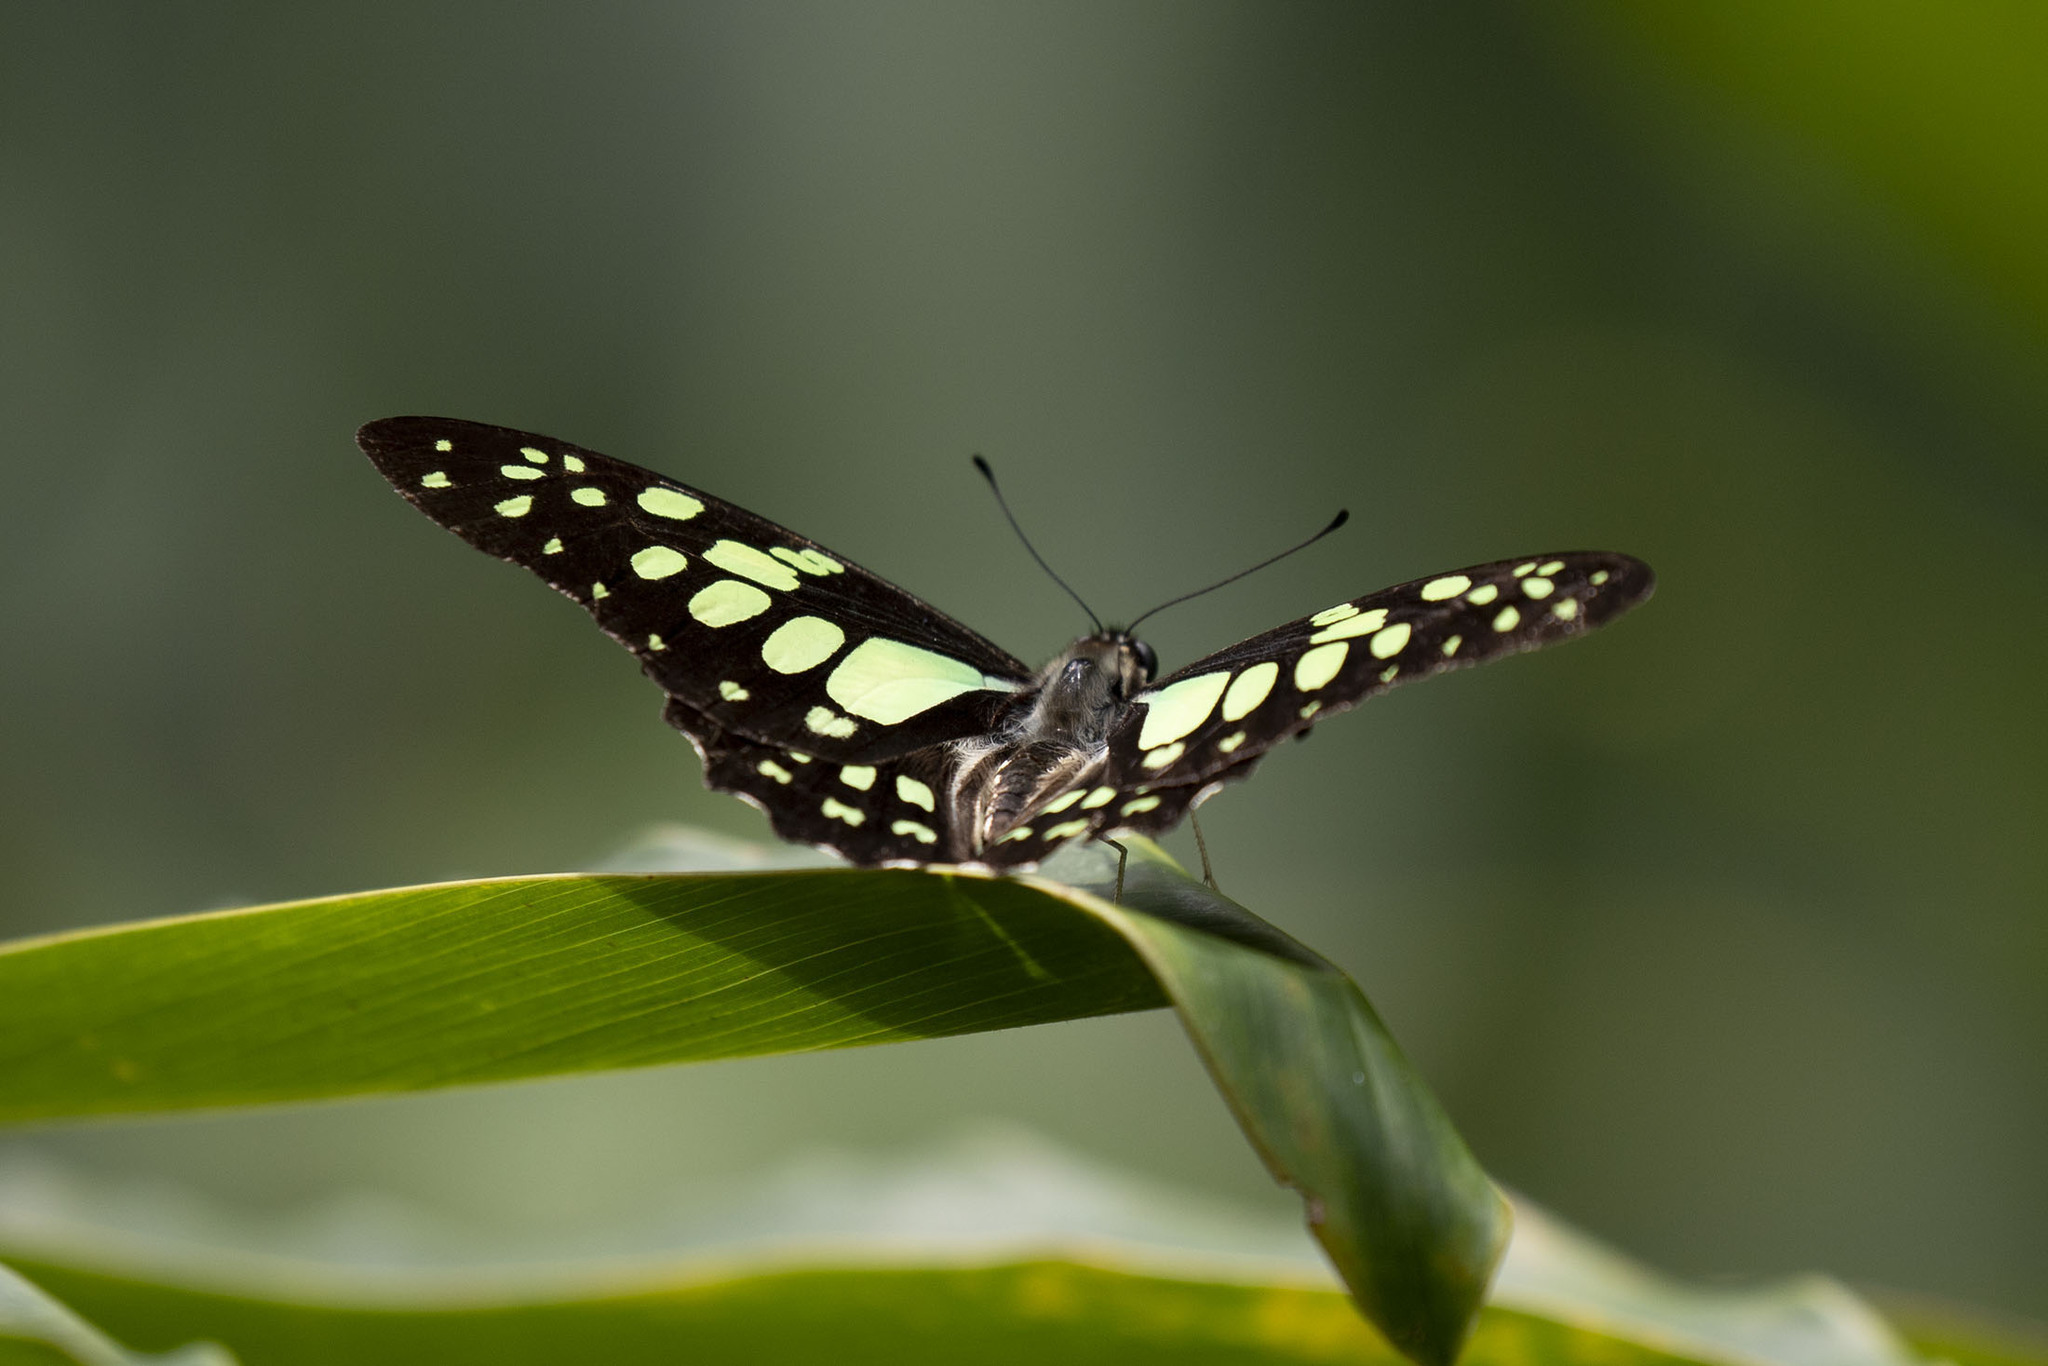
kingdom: Animalia
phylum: Arthropoda
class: Insecta
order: Lepidoptera
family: Papilionidae
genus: Graphium
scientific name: Graphium cyrnus
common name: Madagascan graphium
